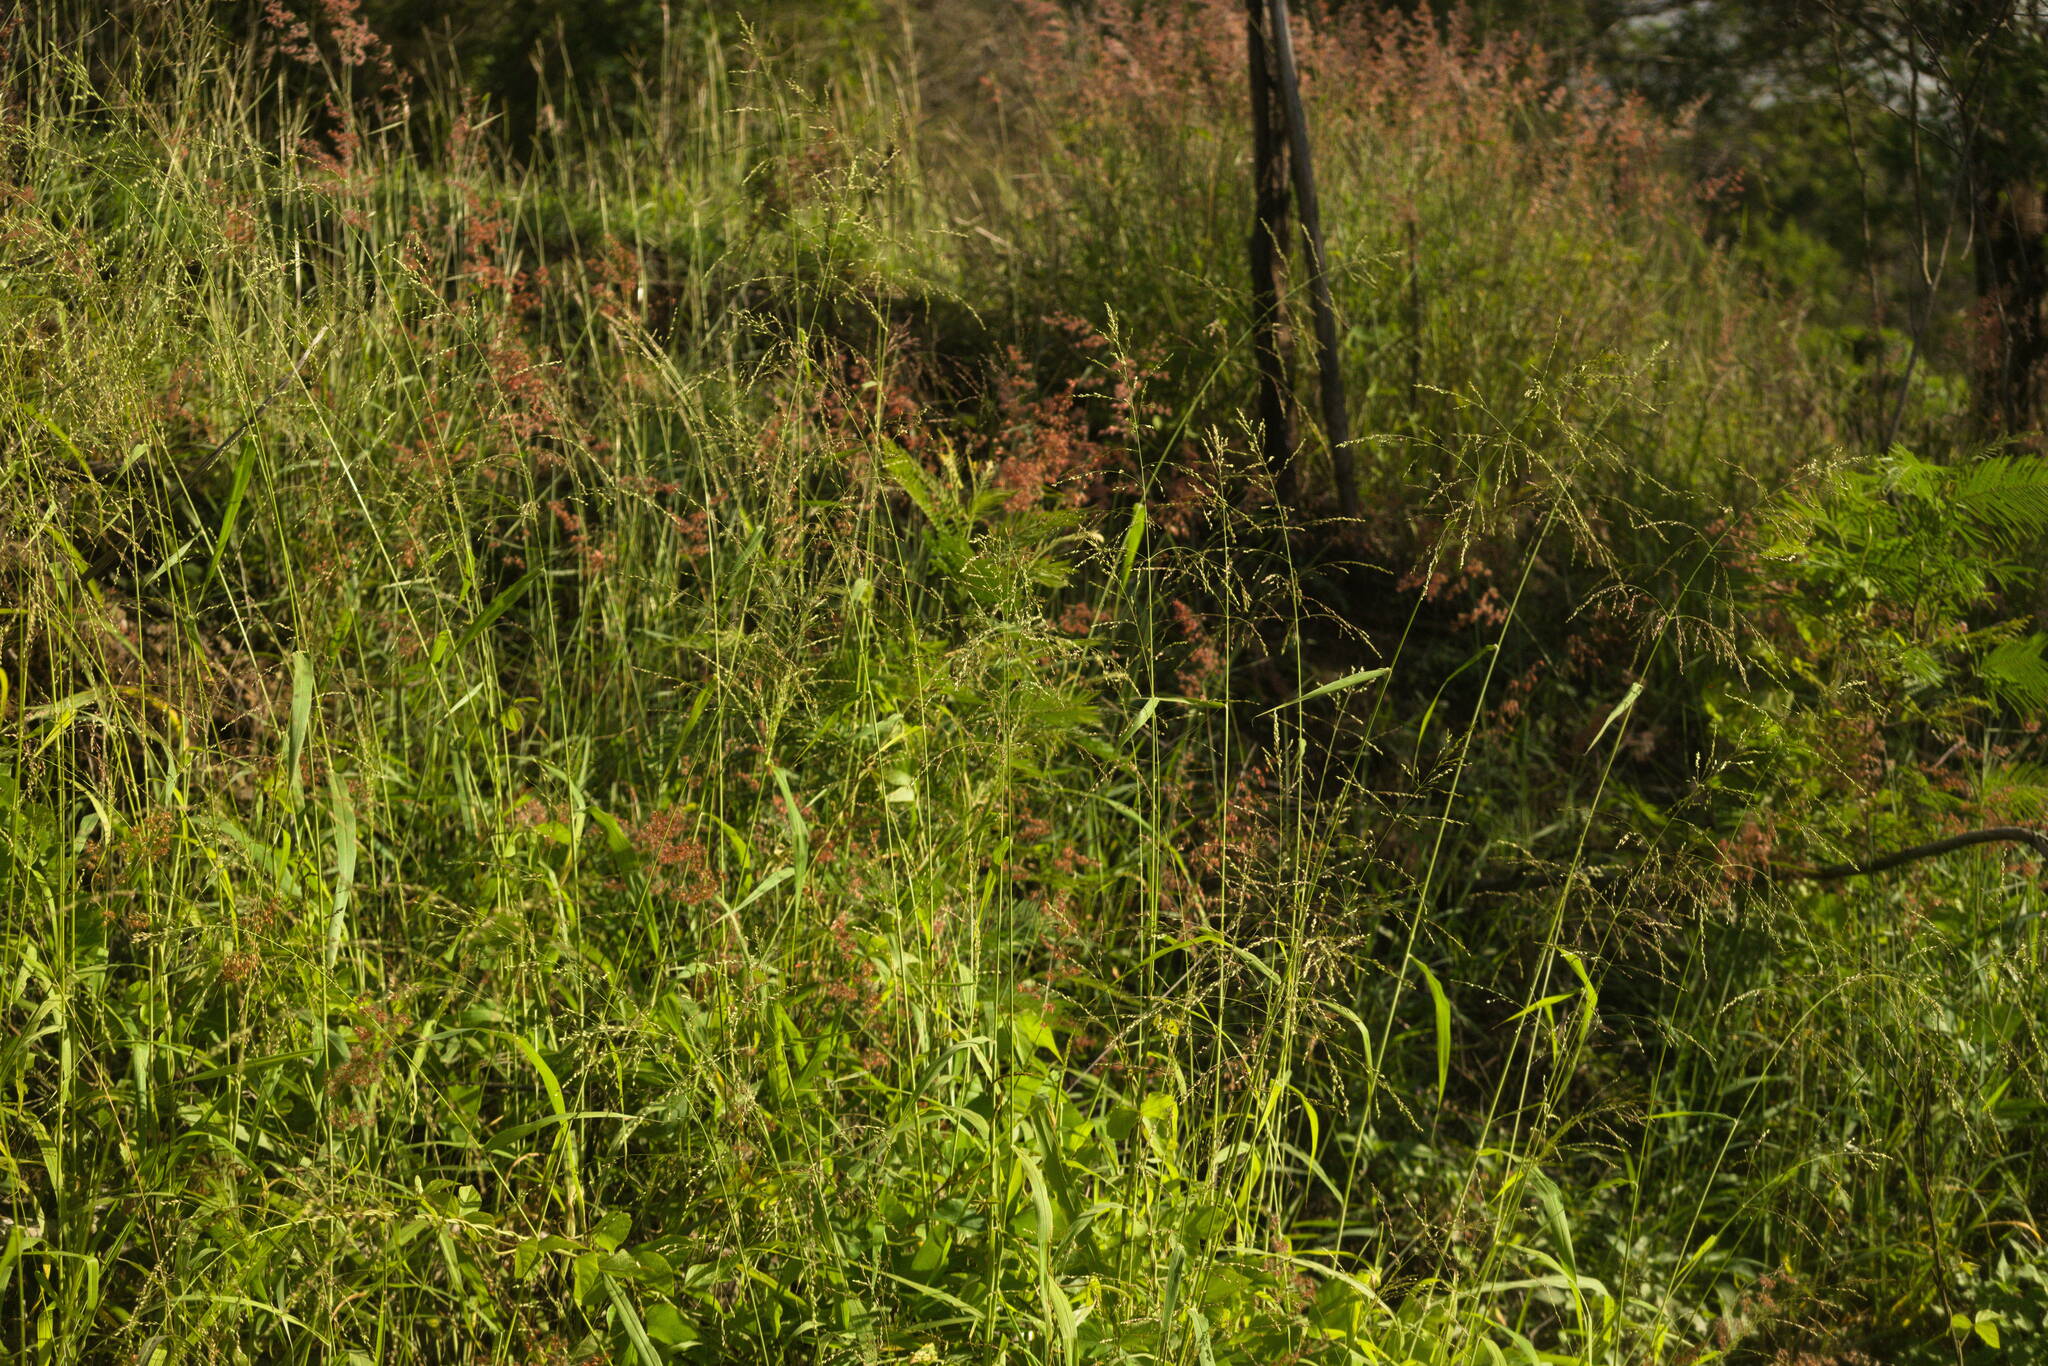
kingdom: Plantae
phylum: Tracheophyta
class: Liliopsida
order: Poales
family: Poaceae
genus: Megathyrsus
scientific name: Megathyrsus maximus
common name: Guineagrass
